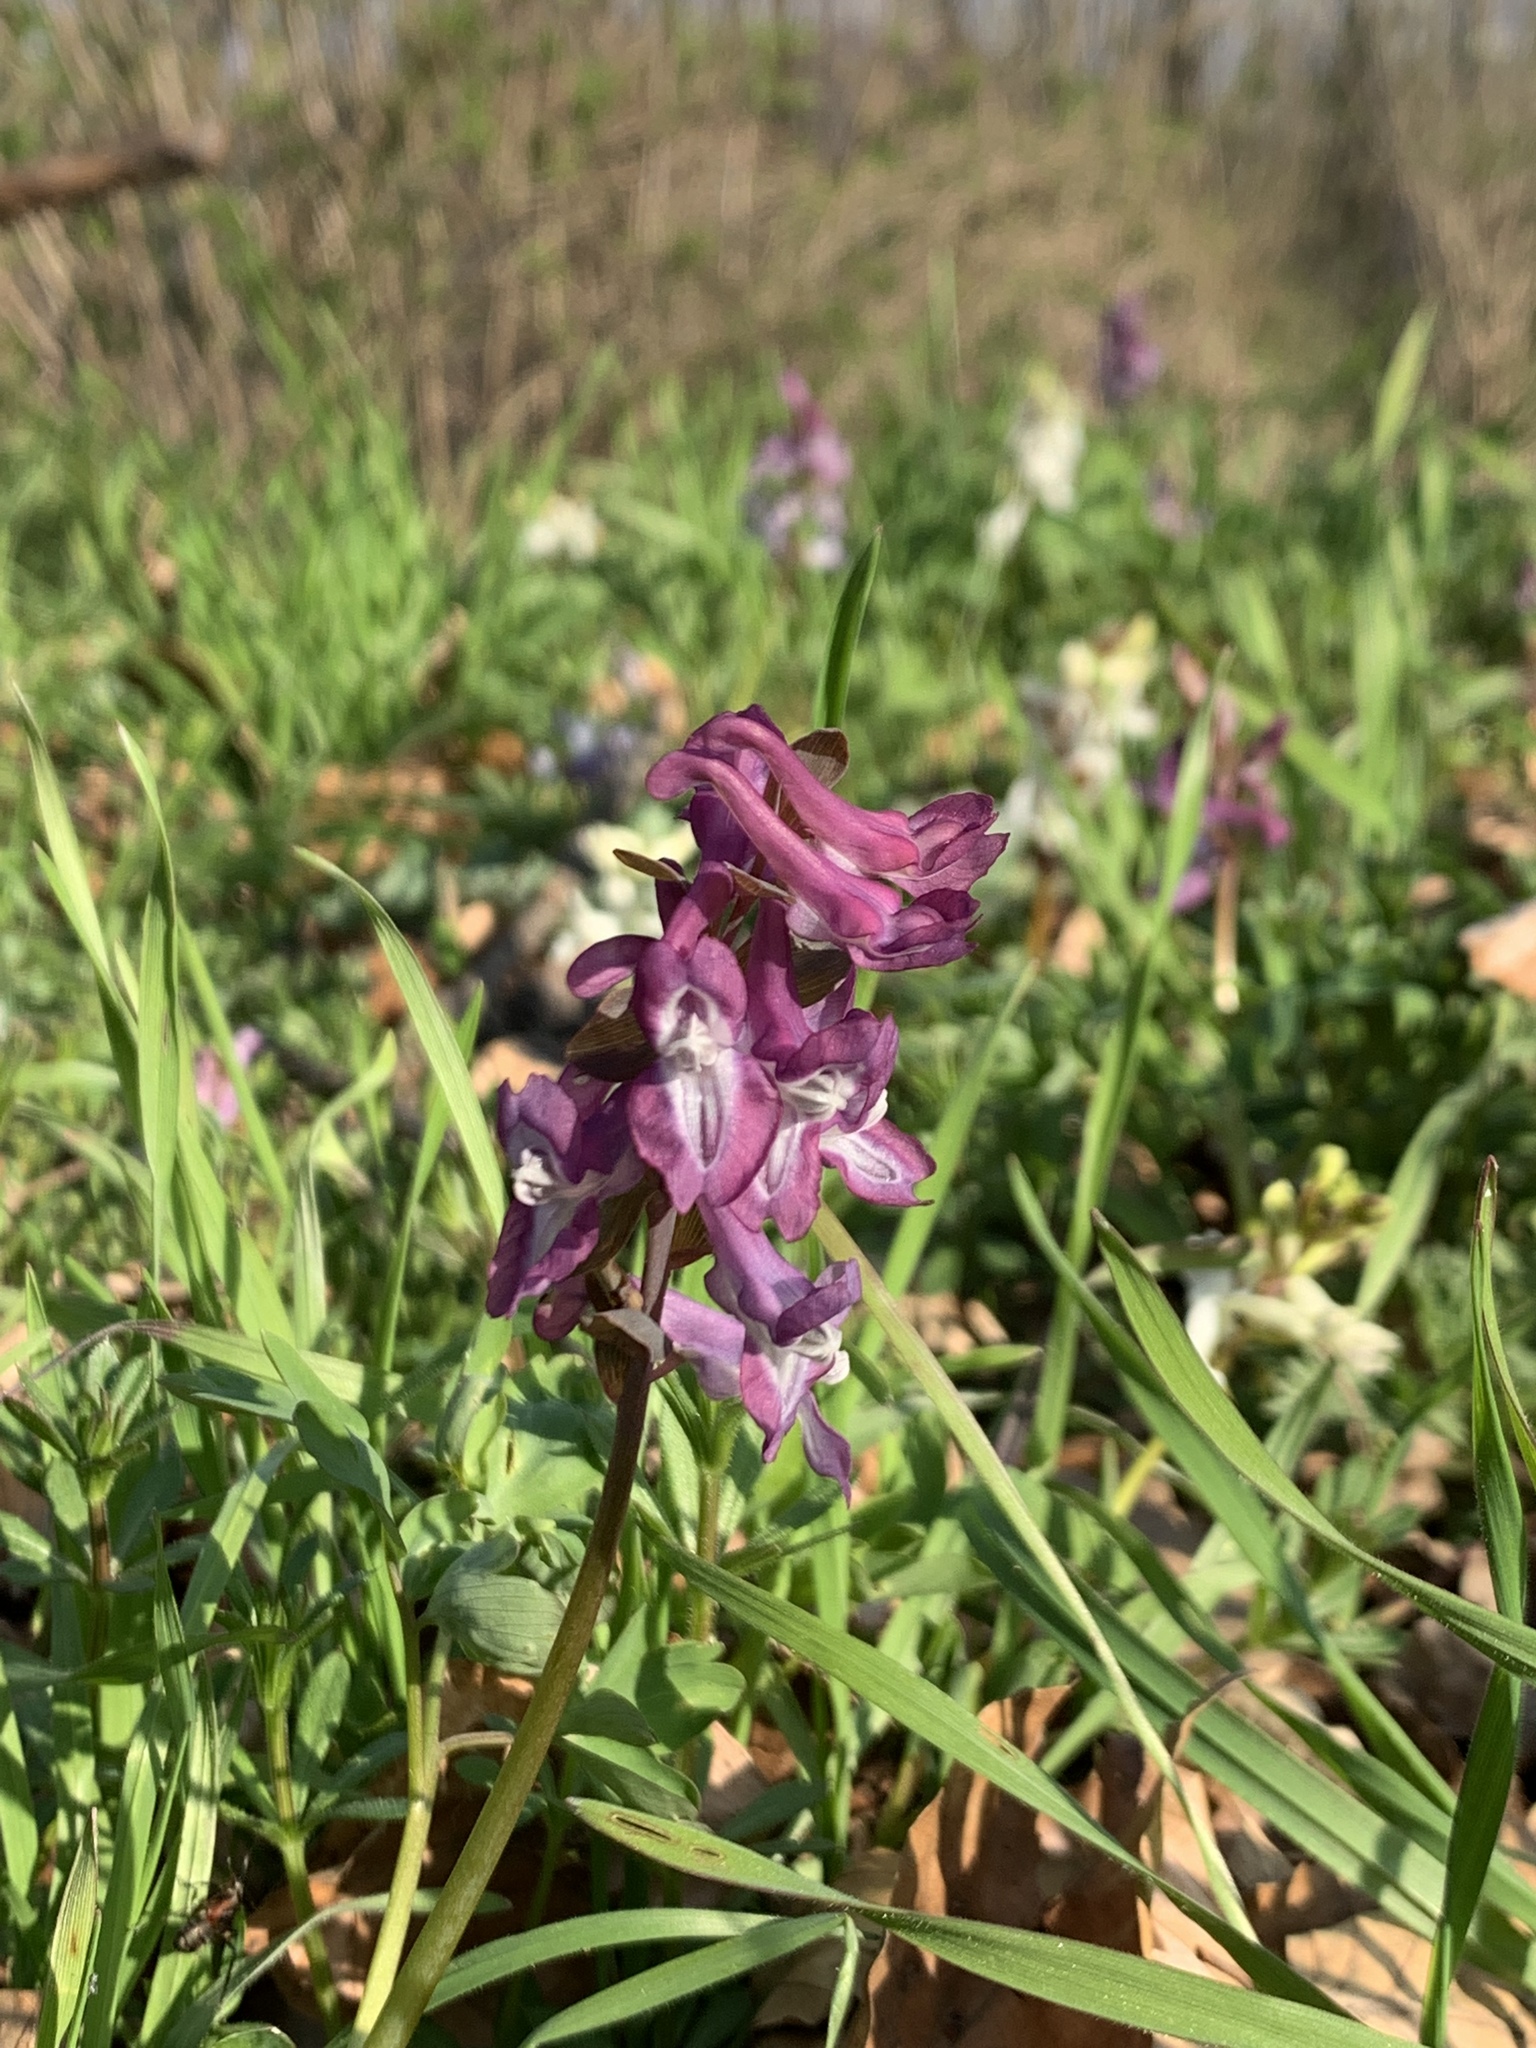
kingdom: Plantae
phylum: Tracheophyta
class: Magnoliopsida
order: Ranunculales
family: Papaveraceae
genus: Corydalis
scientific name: Corydalis cava
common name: Hollowroot
